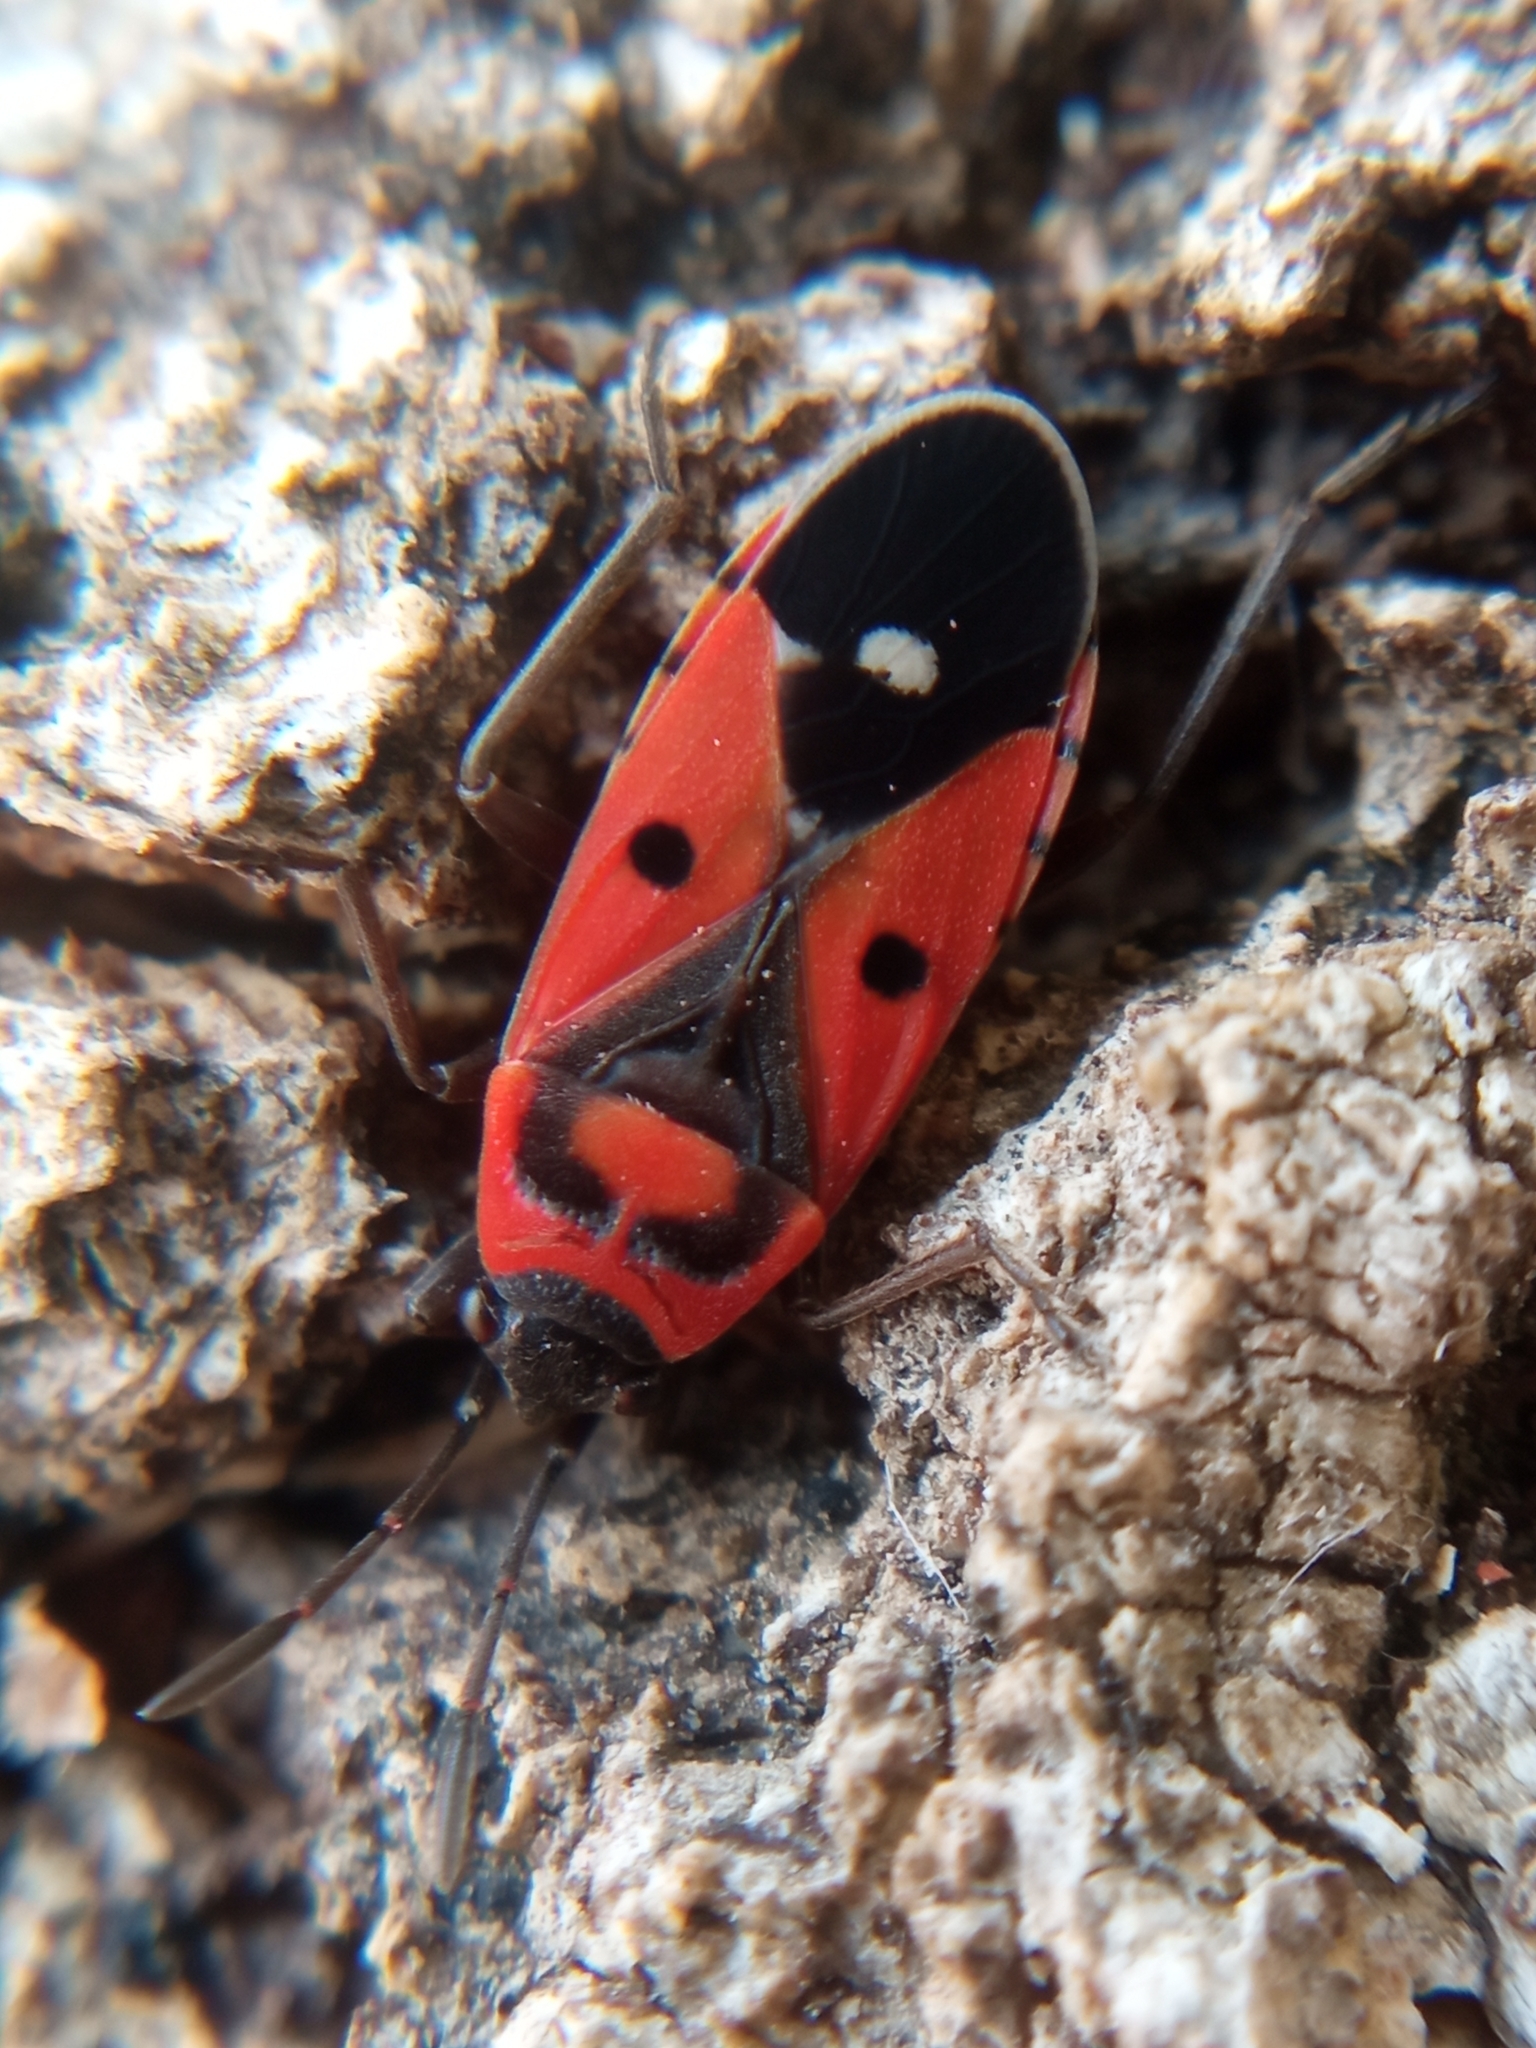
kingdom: Animalia
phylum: Arthropoda
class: Insecta
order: Hemiptera
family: Lygaeidae
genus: Melanocoryphus
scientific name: Melanocoryphus albomaculatus
